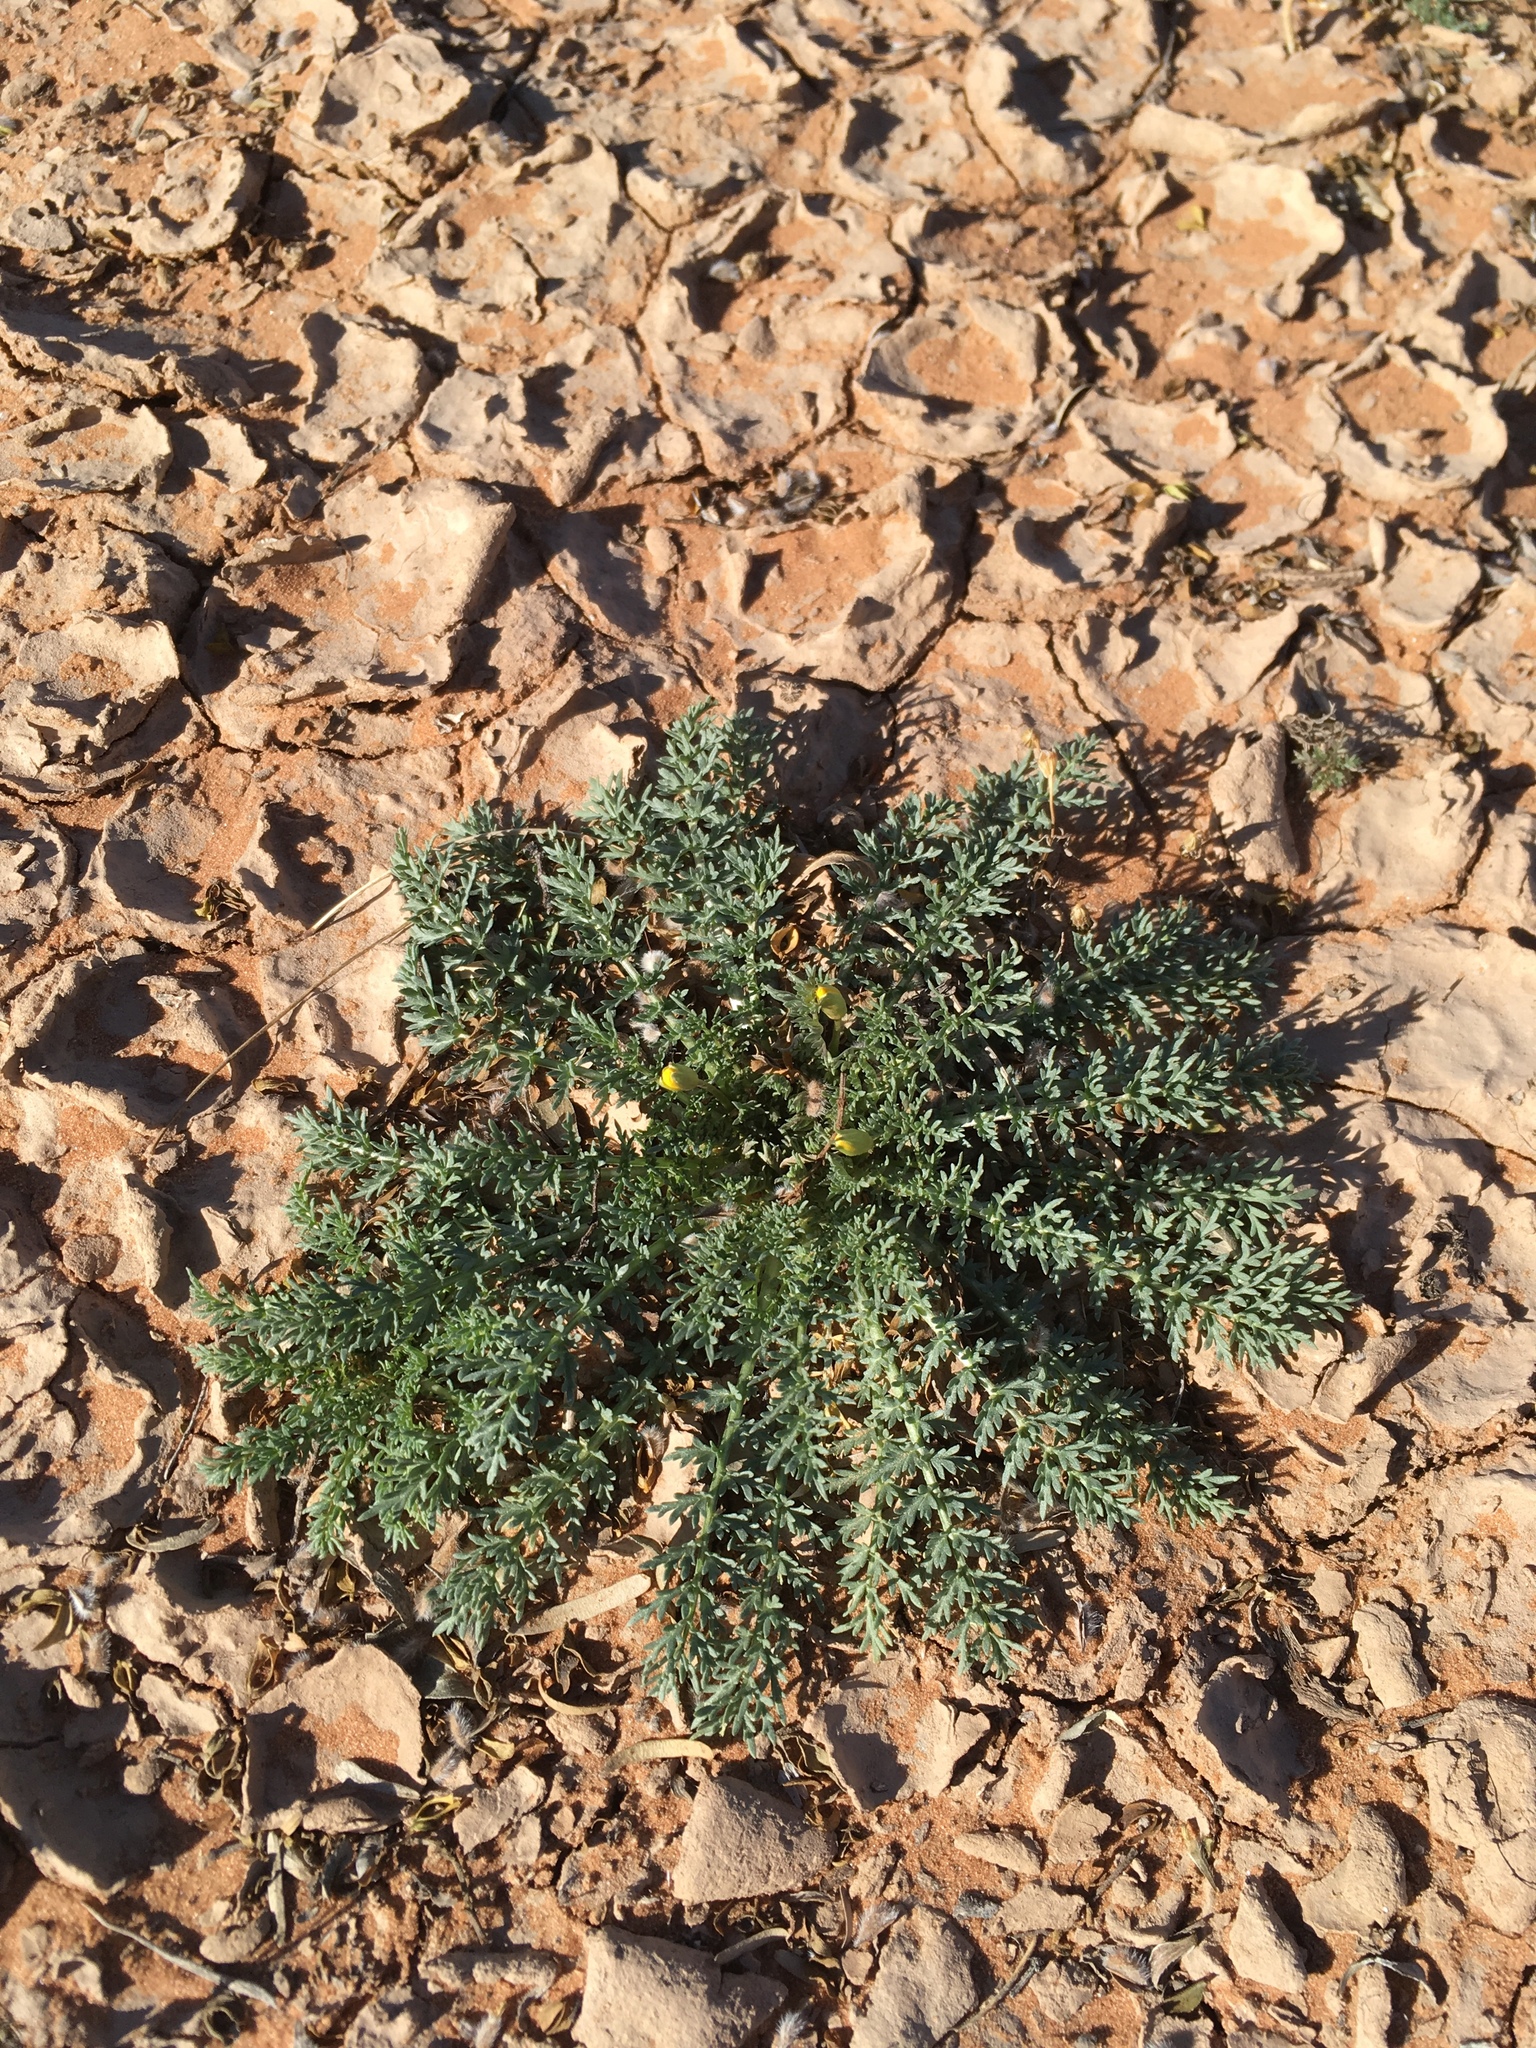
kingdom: Plantae
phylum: Tracheophyta
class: Magnoliopsida
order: Brassicales
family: Brassicaceae
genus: Selenia
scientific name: Selenia dissecta
